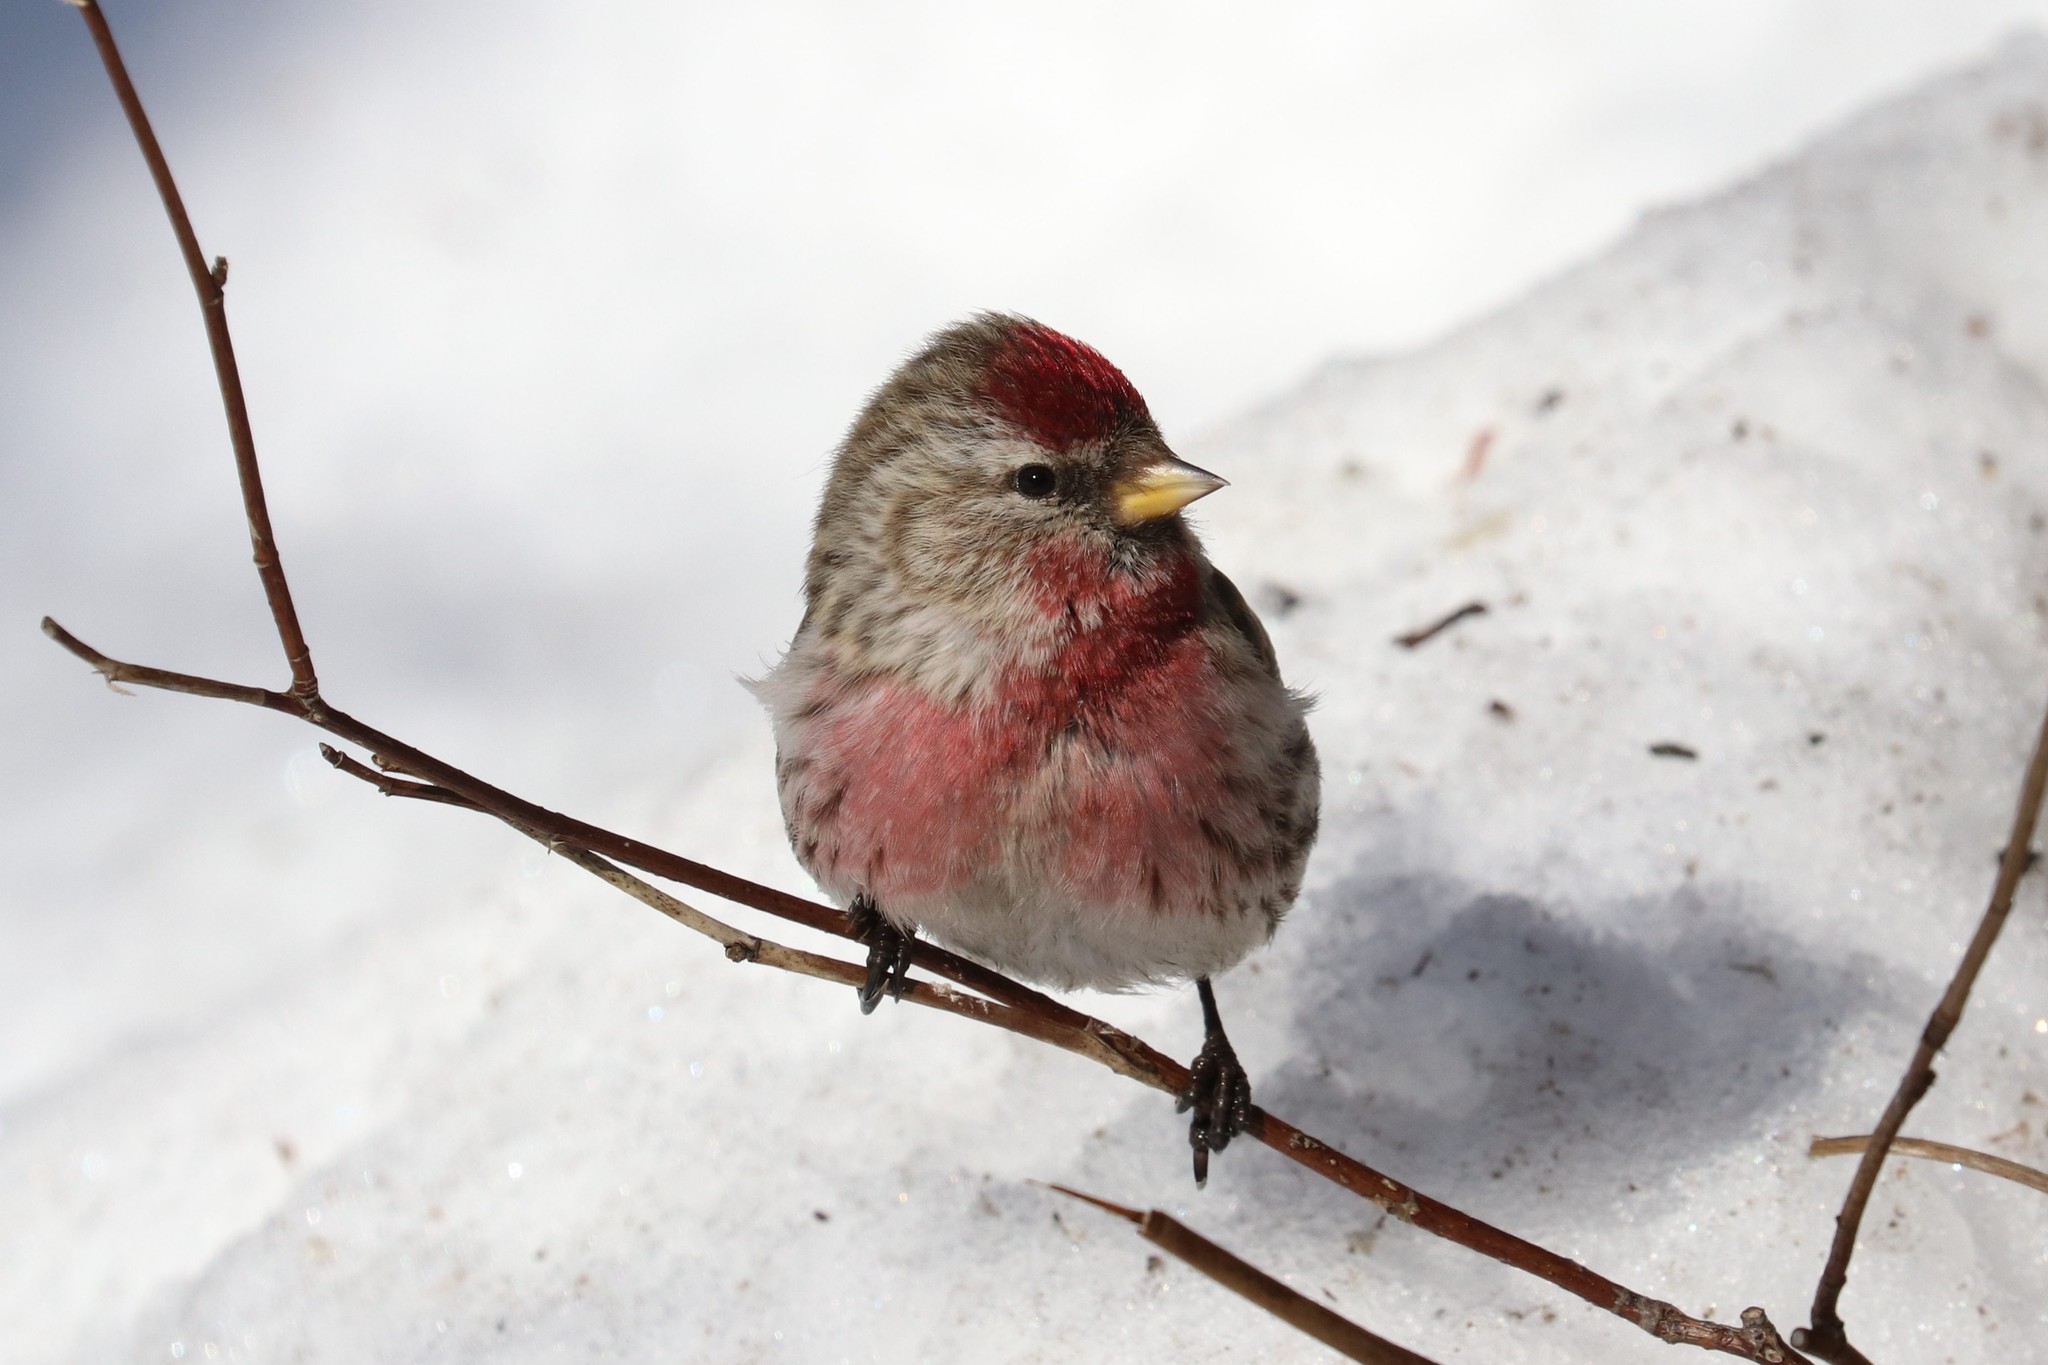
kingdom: Animalia
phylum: Chordata
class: Aves
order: Passeriformes
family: Fringillidae
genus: Acanthis
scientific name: Acanthis flammea
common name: Common redpoll
